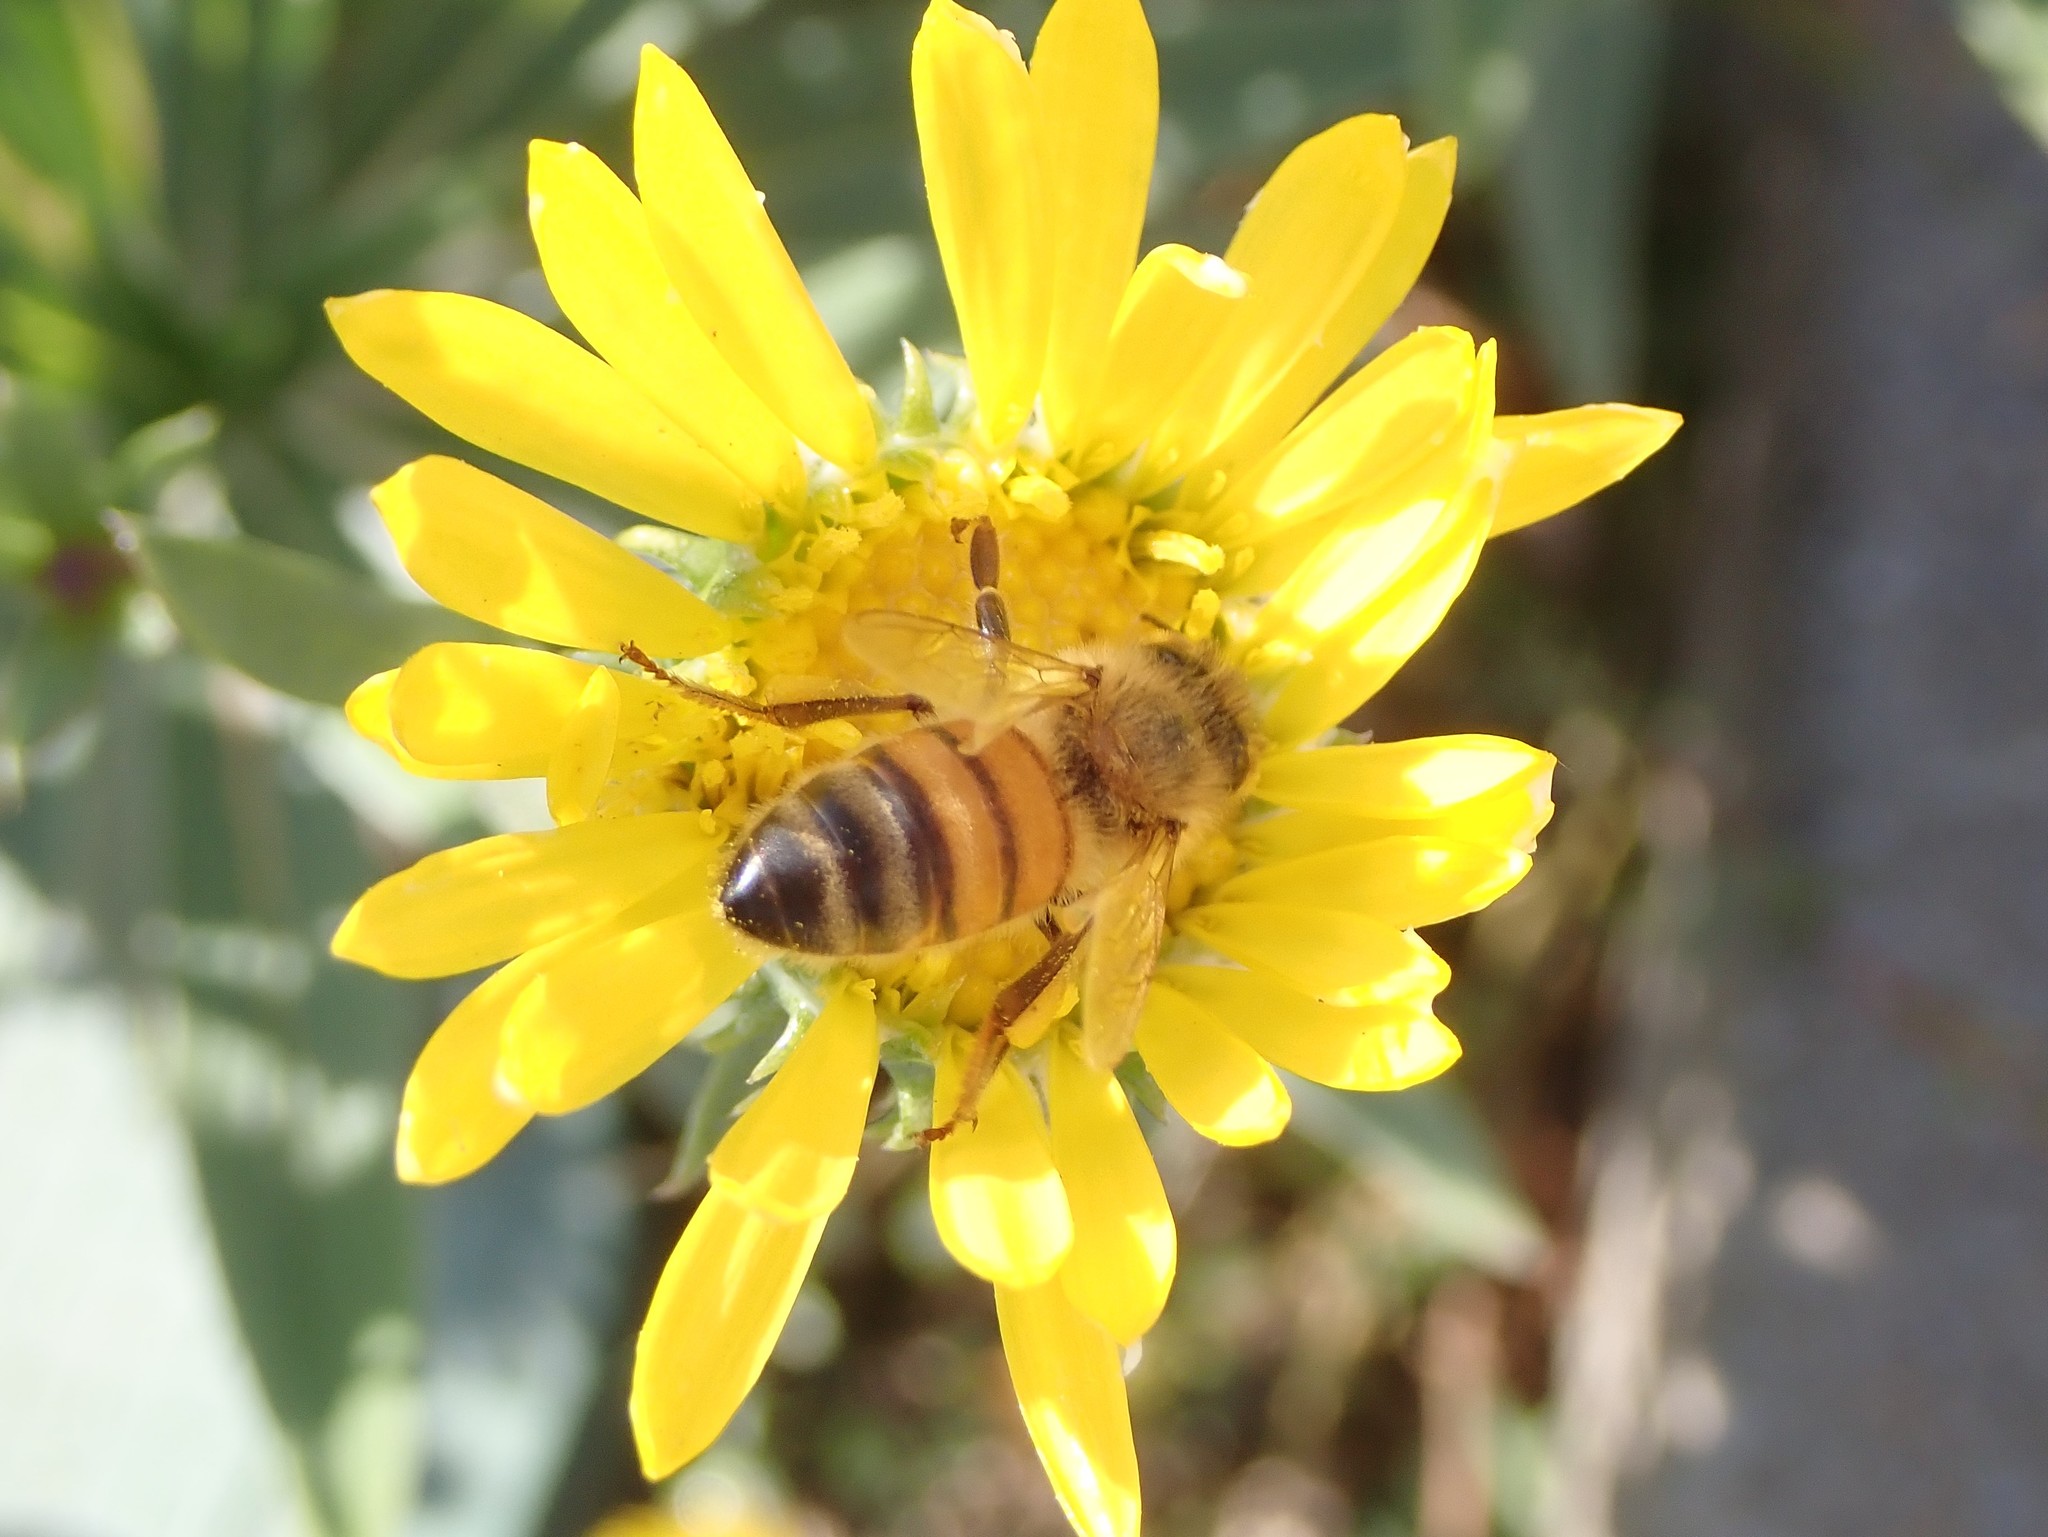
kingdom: Animalia
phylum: Arthropoda
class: Insecta
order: Hymenoptera
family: Apidae
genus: Apis
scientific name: Apis mellifera
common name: Honey bee
